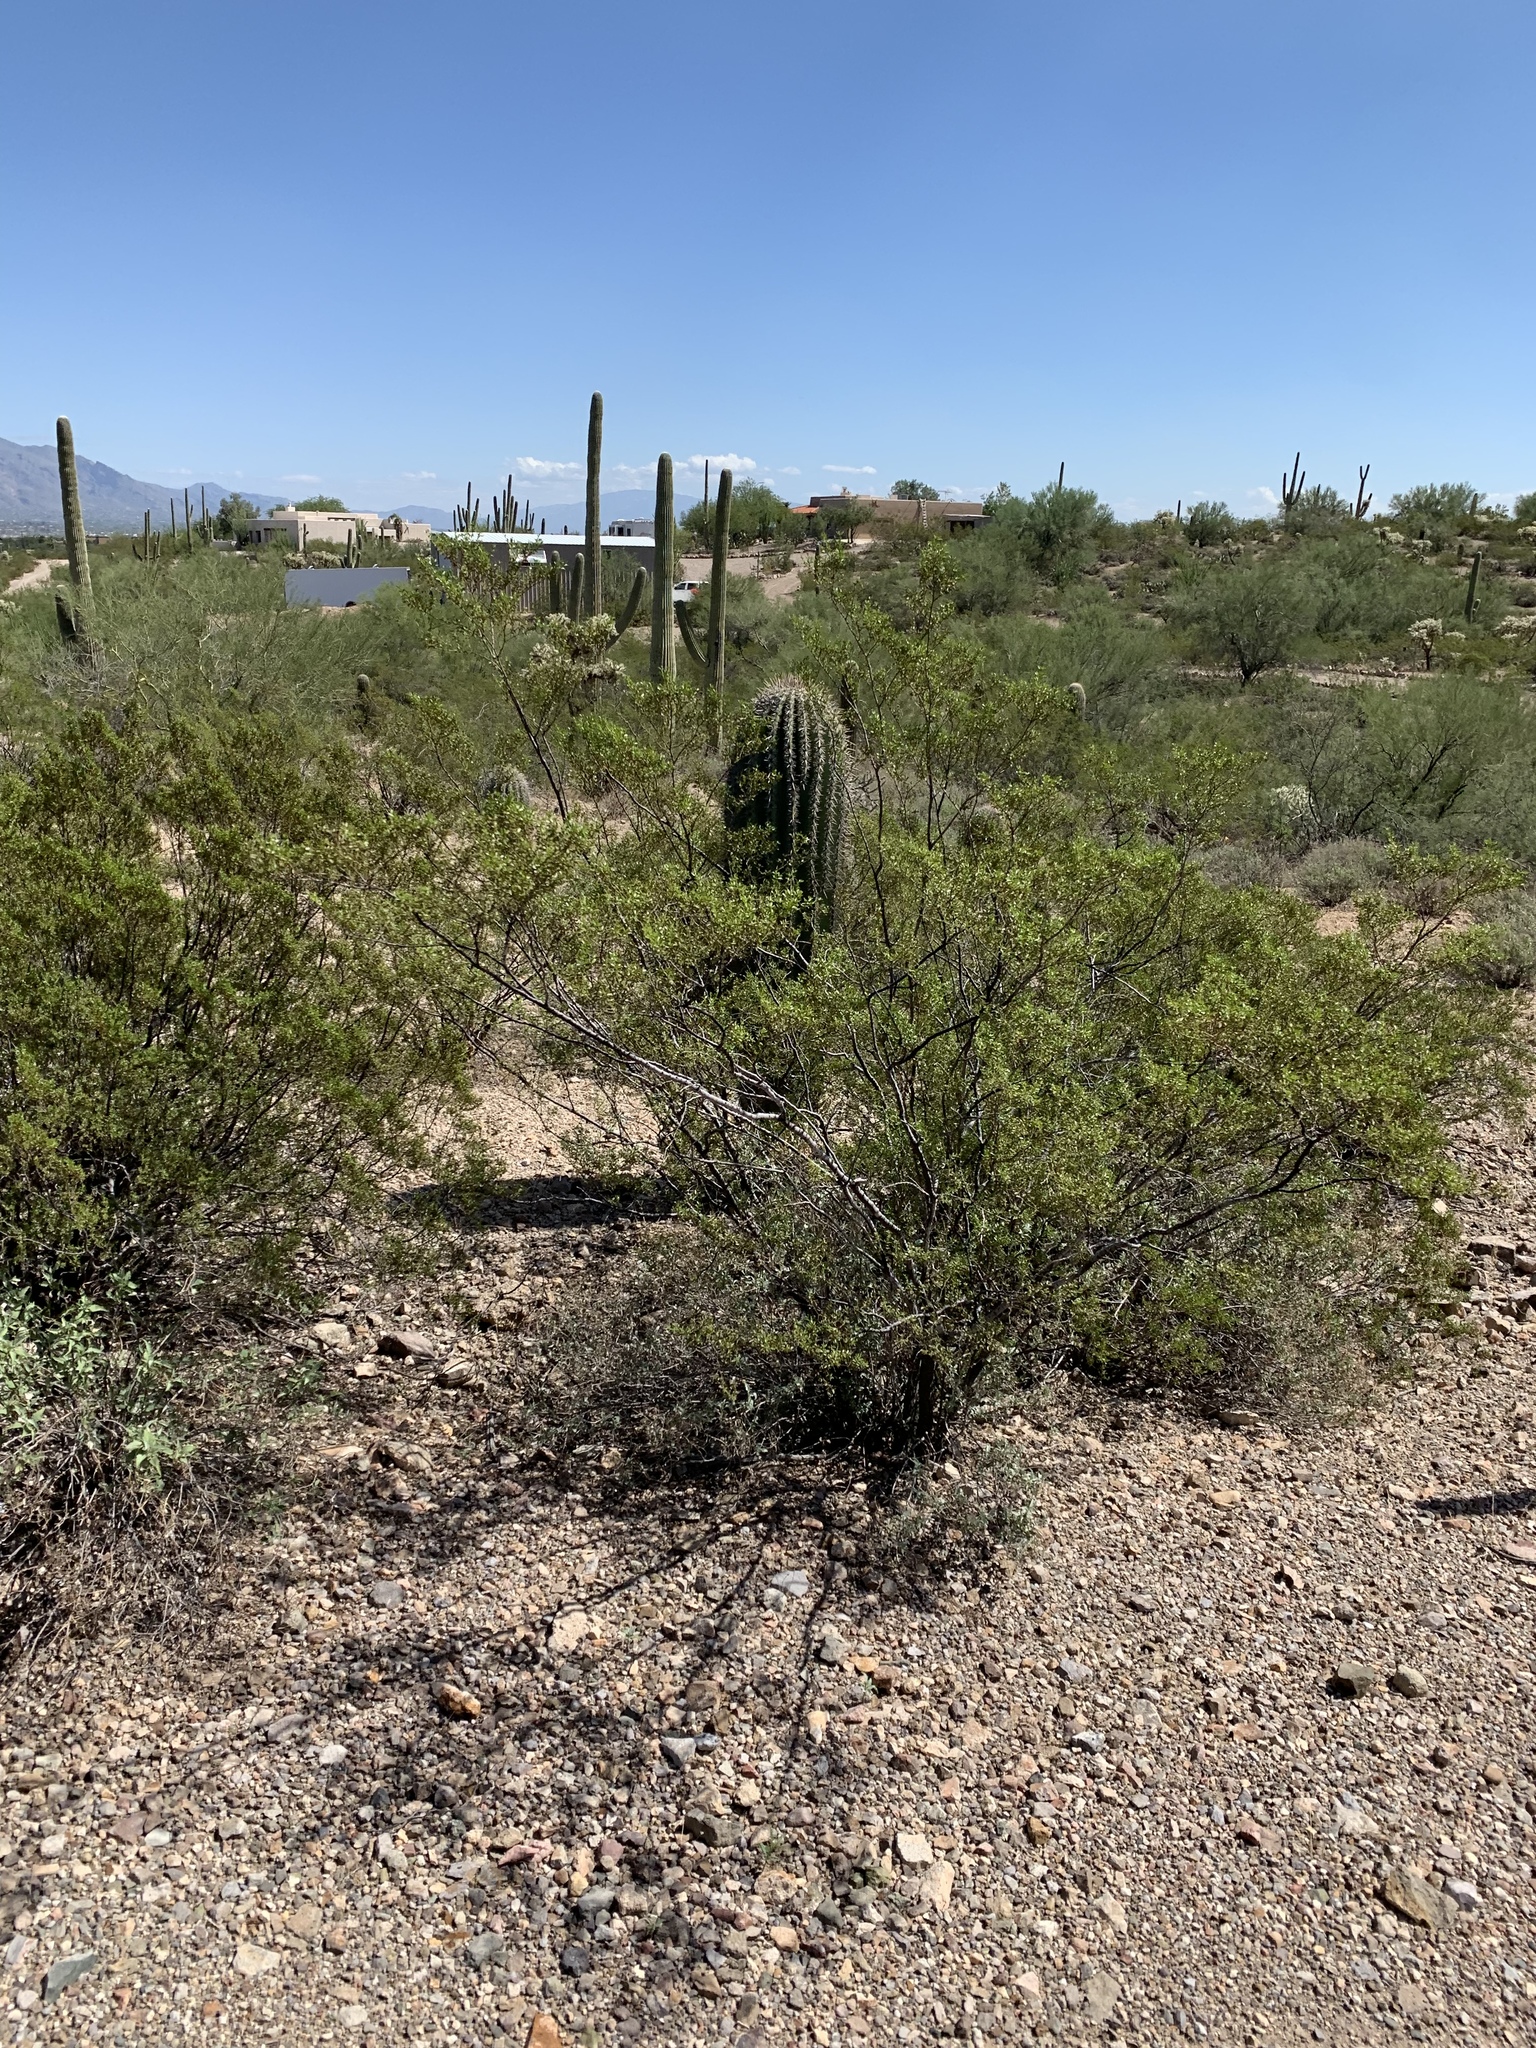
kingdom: Plantae
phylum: Tracheophyta
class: Magnoliopsida
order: Zygophyllales
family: Zygophyllaceae
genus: Larrea
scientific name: Larrea tridentata
